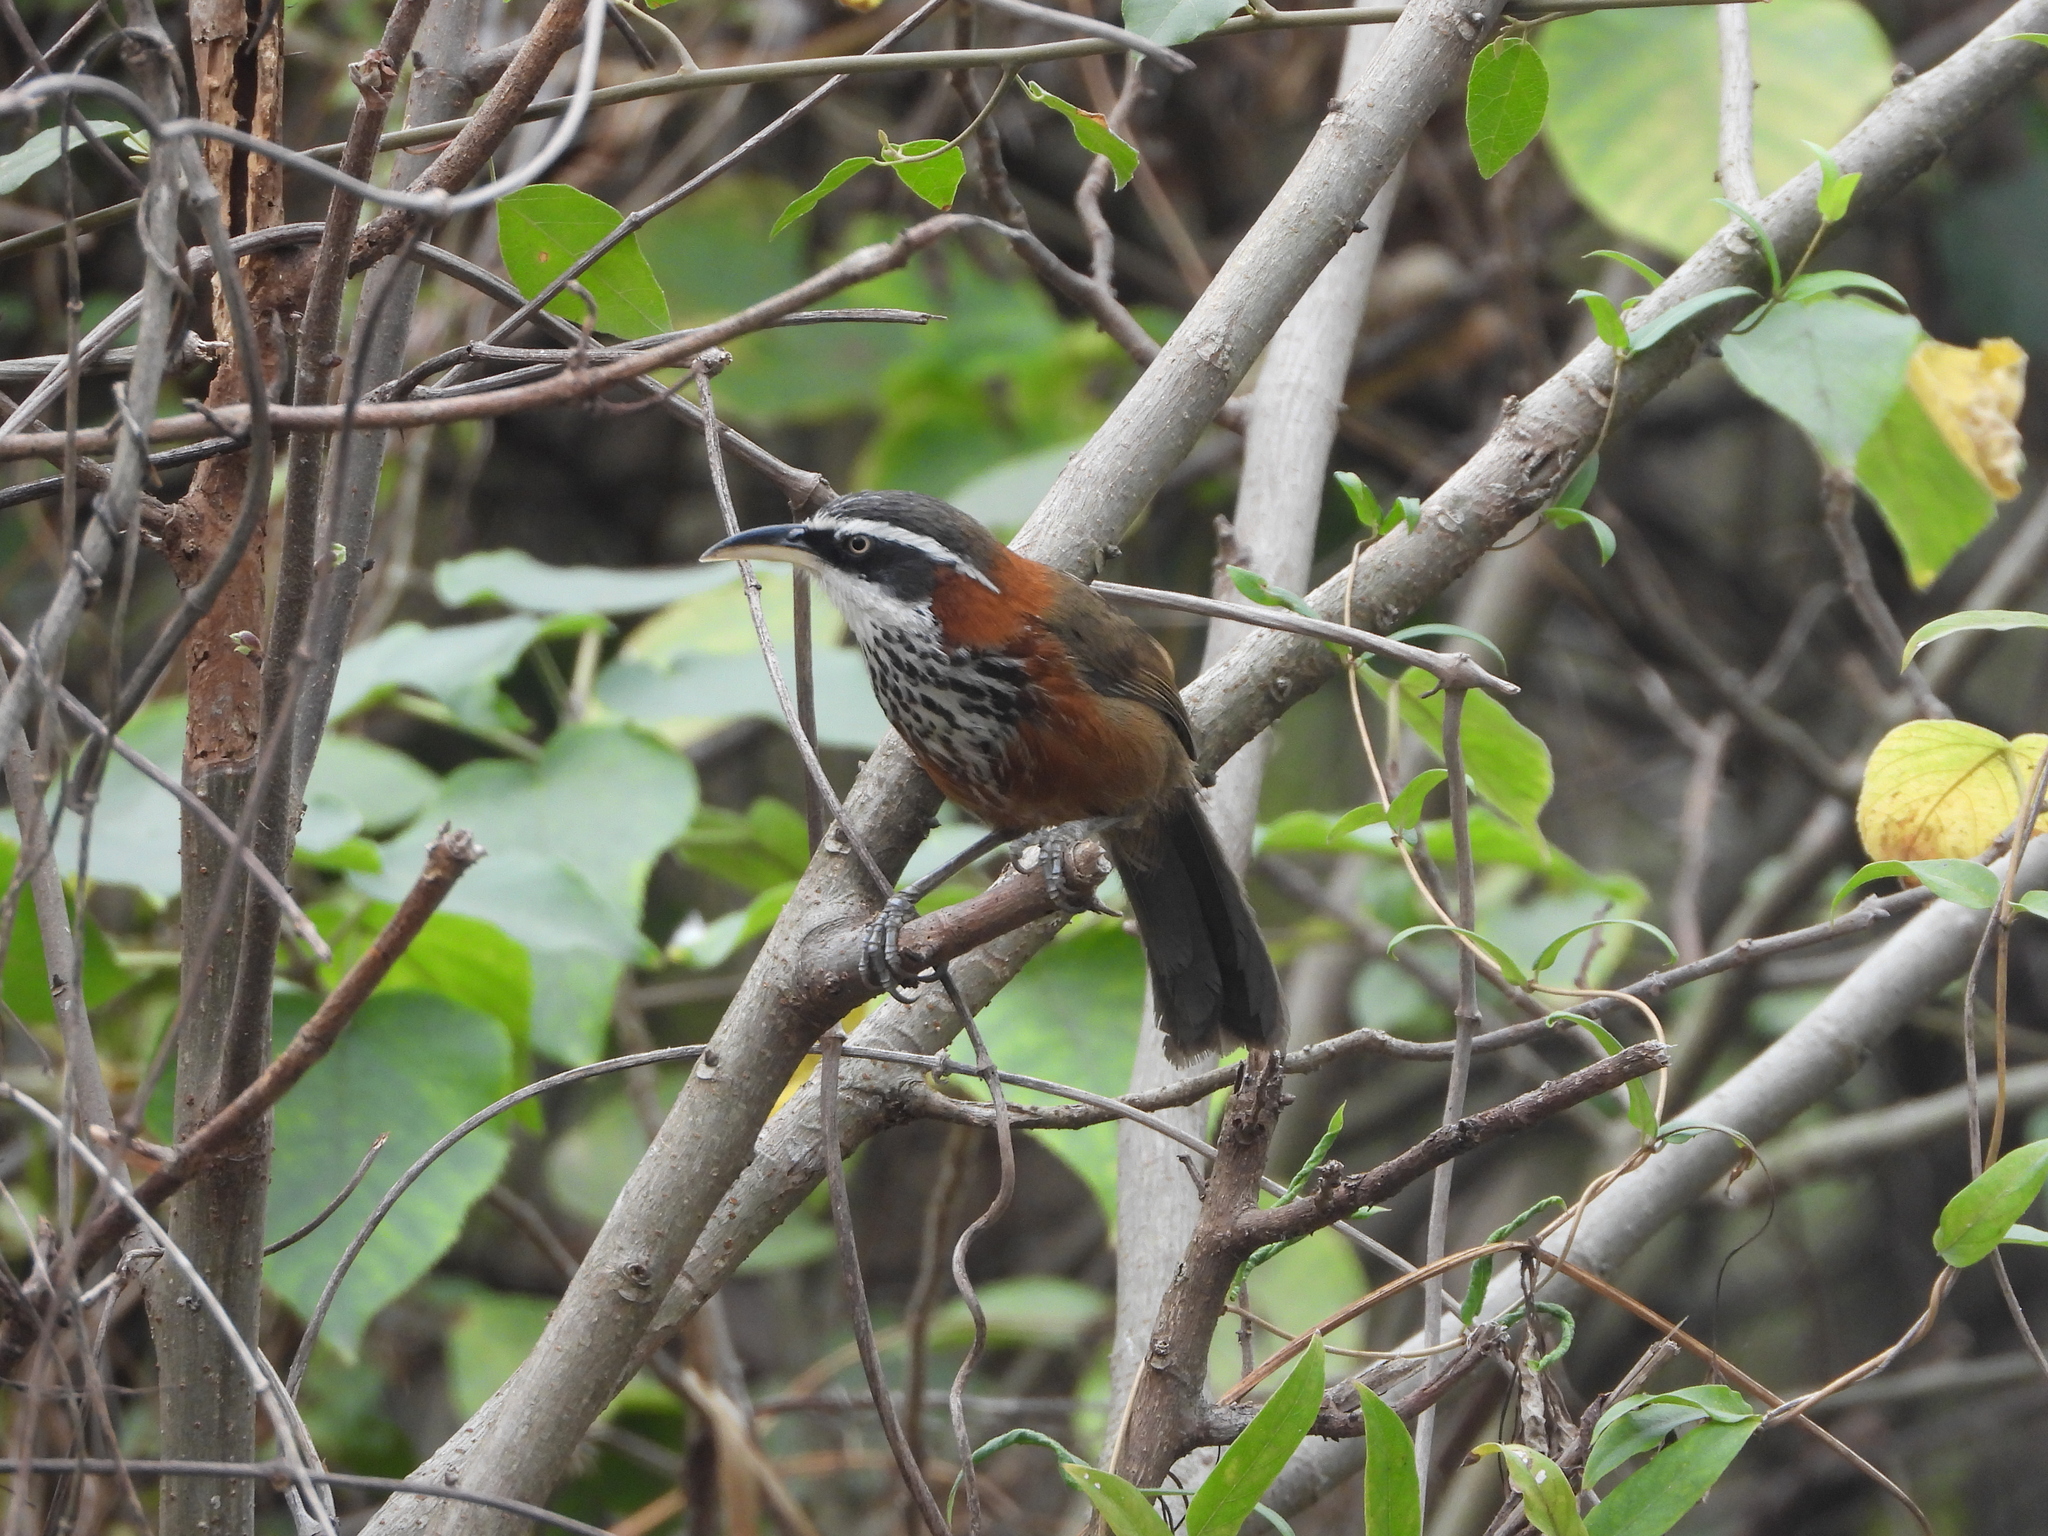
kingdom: Animalia
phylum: Chordata
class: Aves
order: Passeriformes
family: Timaliidae
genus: Pomatorhinus
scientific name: Pomatorhinus musicus
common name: Taiwan scimitar-babbler
